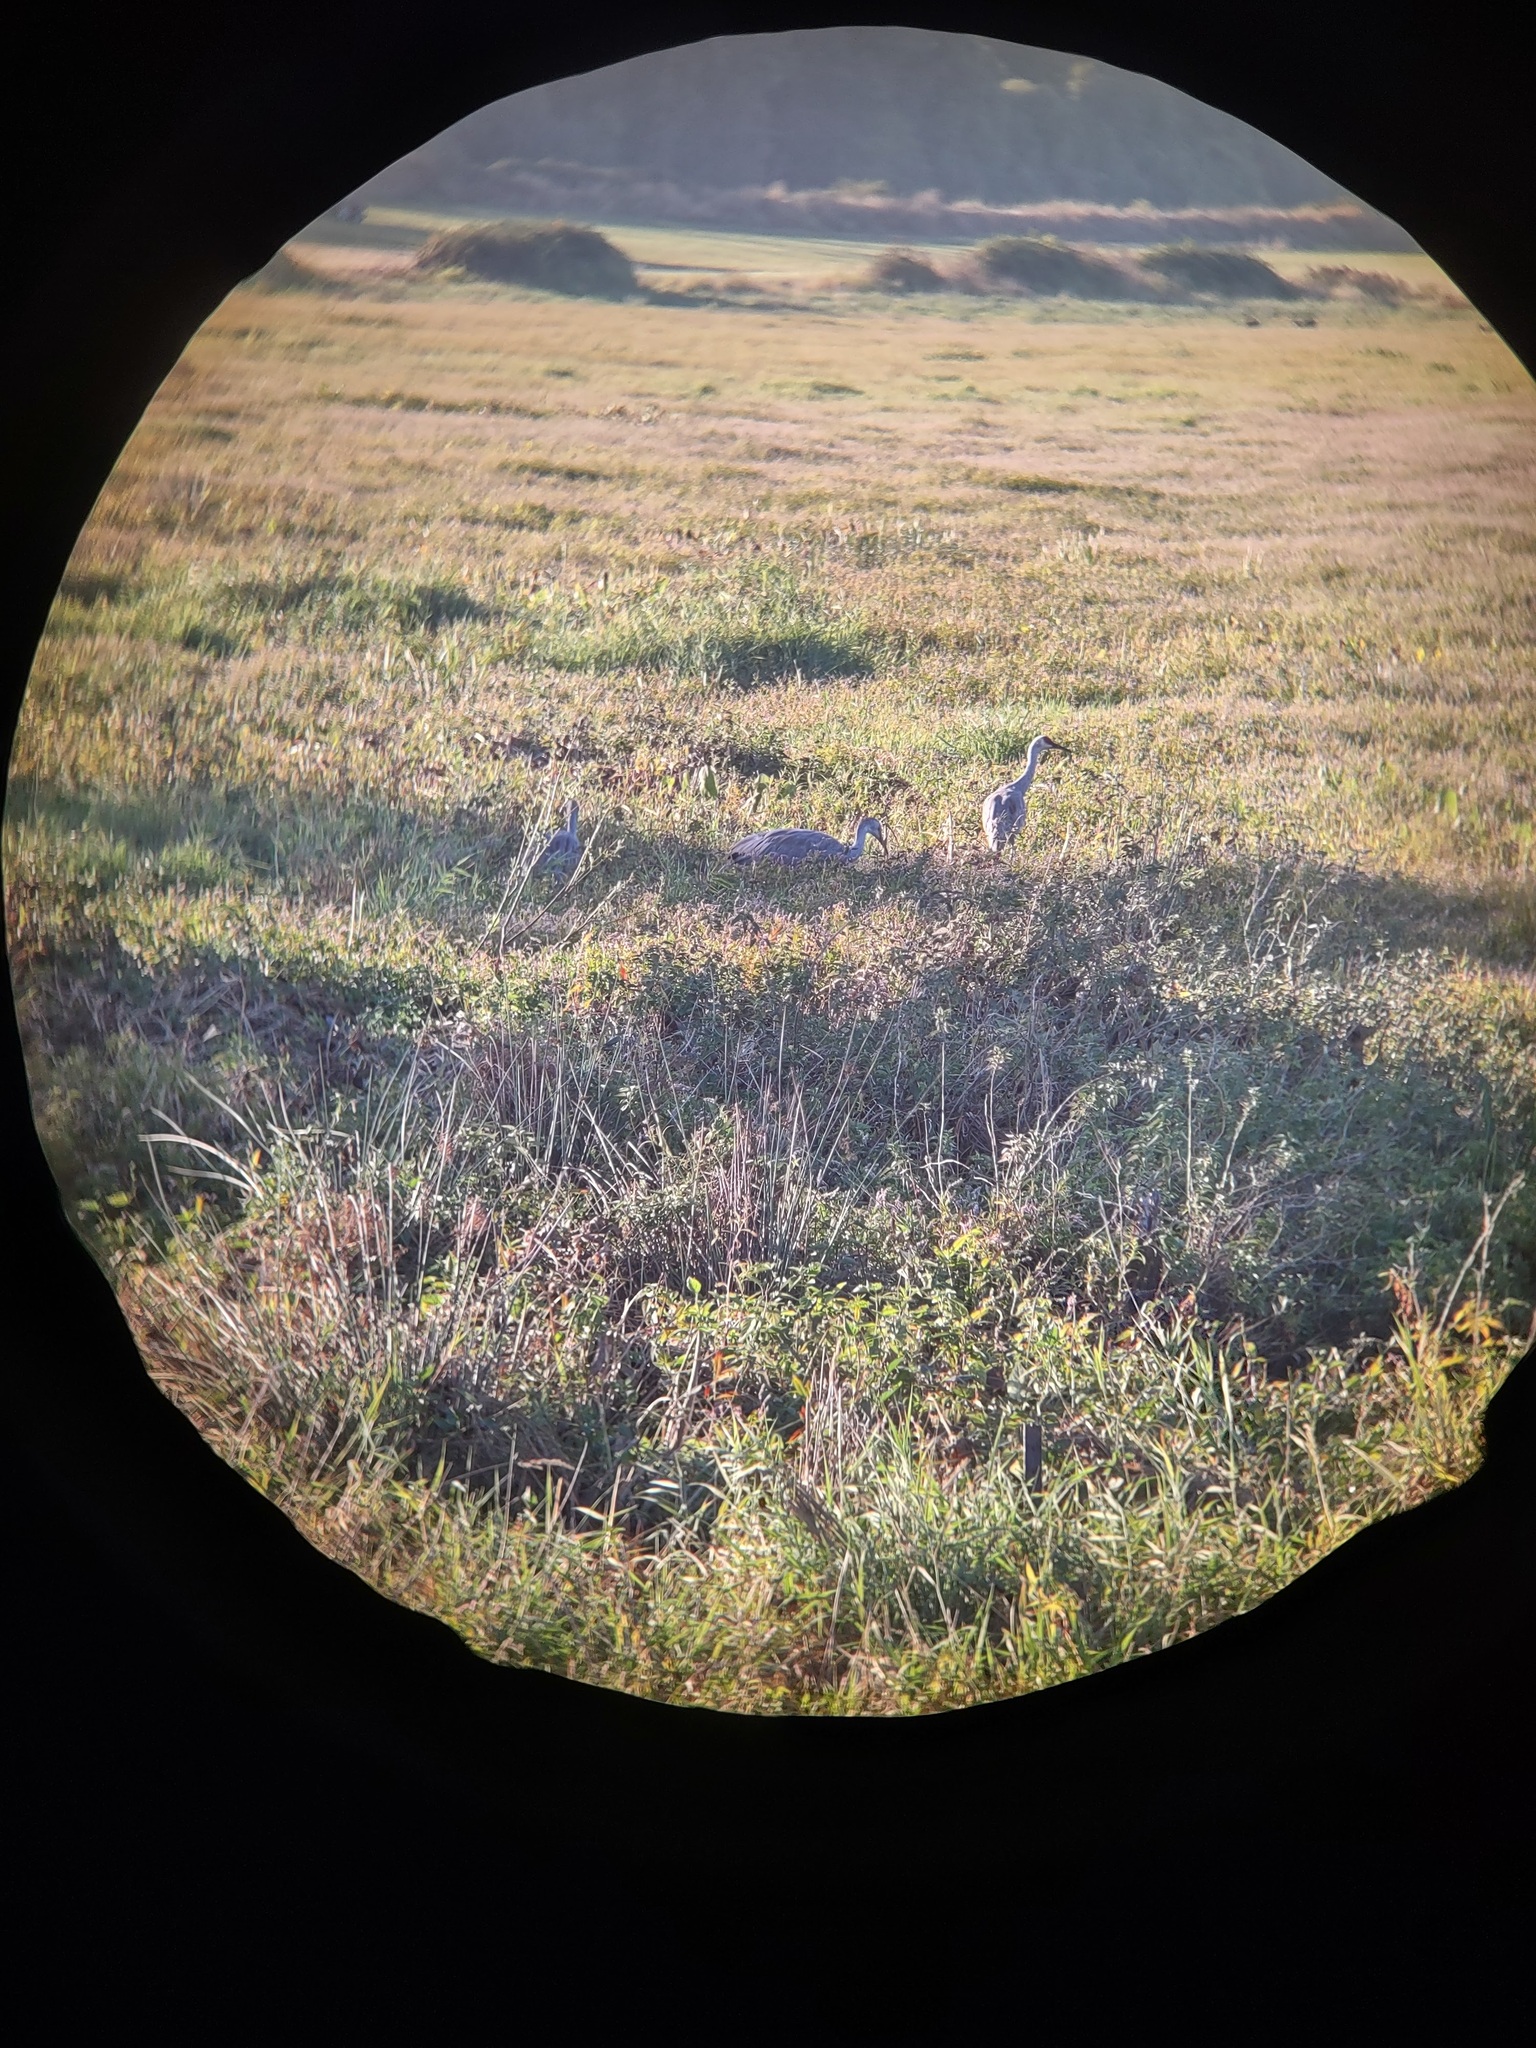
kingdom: Animalia
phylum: Chordata
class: Aves
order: Gruiformes
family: Gruidae
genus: Grus
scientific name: Grus canadensis
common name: Sandhill crane
